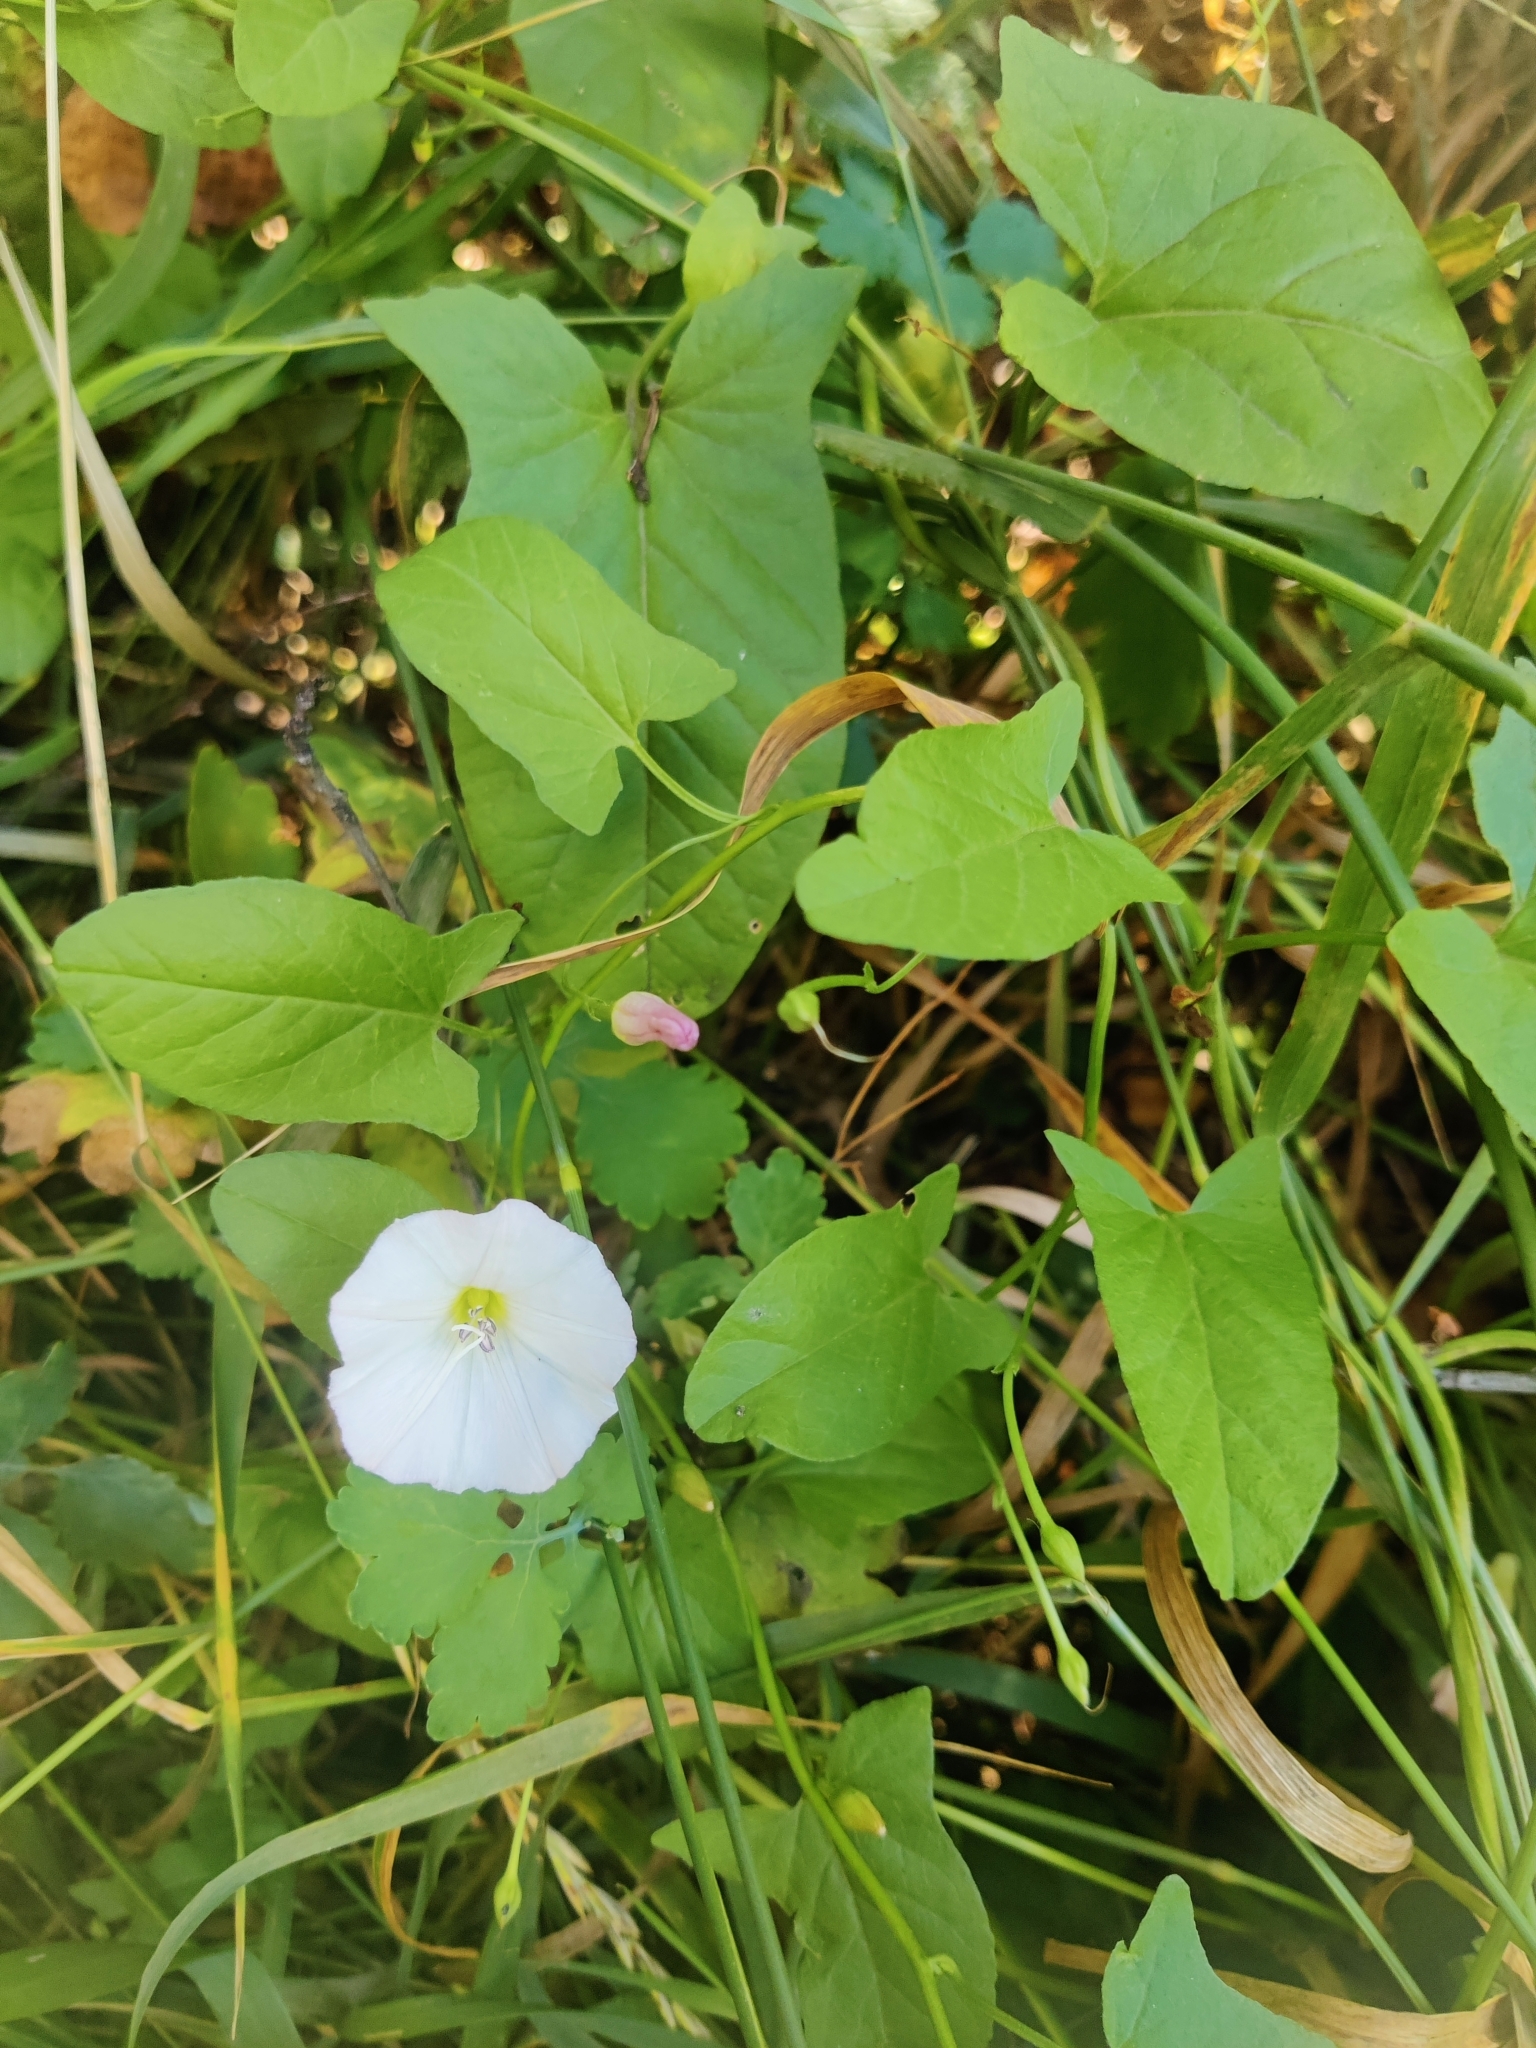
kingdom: Plantae
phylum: Tracheophyta
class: Magnoliopsida
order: Solanales
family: Convolvulaceae
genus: Convolvulus
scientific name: Convolvulus arvensis
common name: Field bindweed
